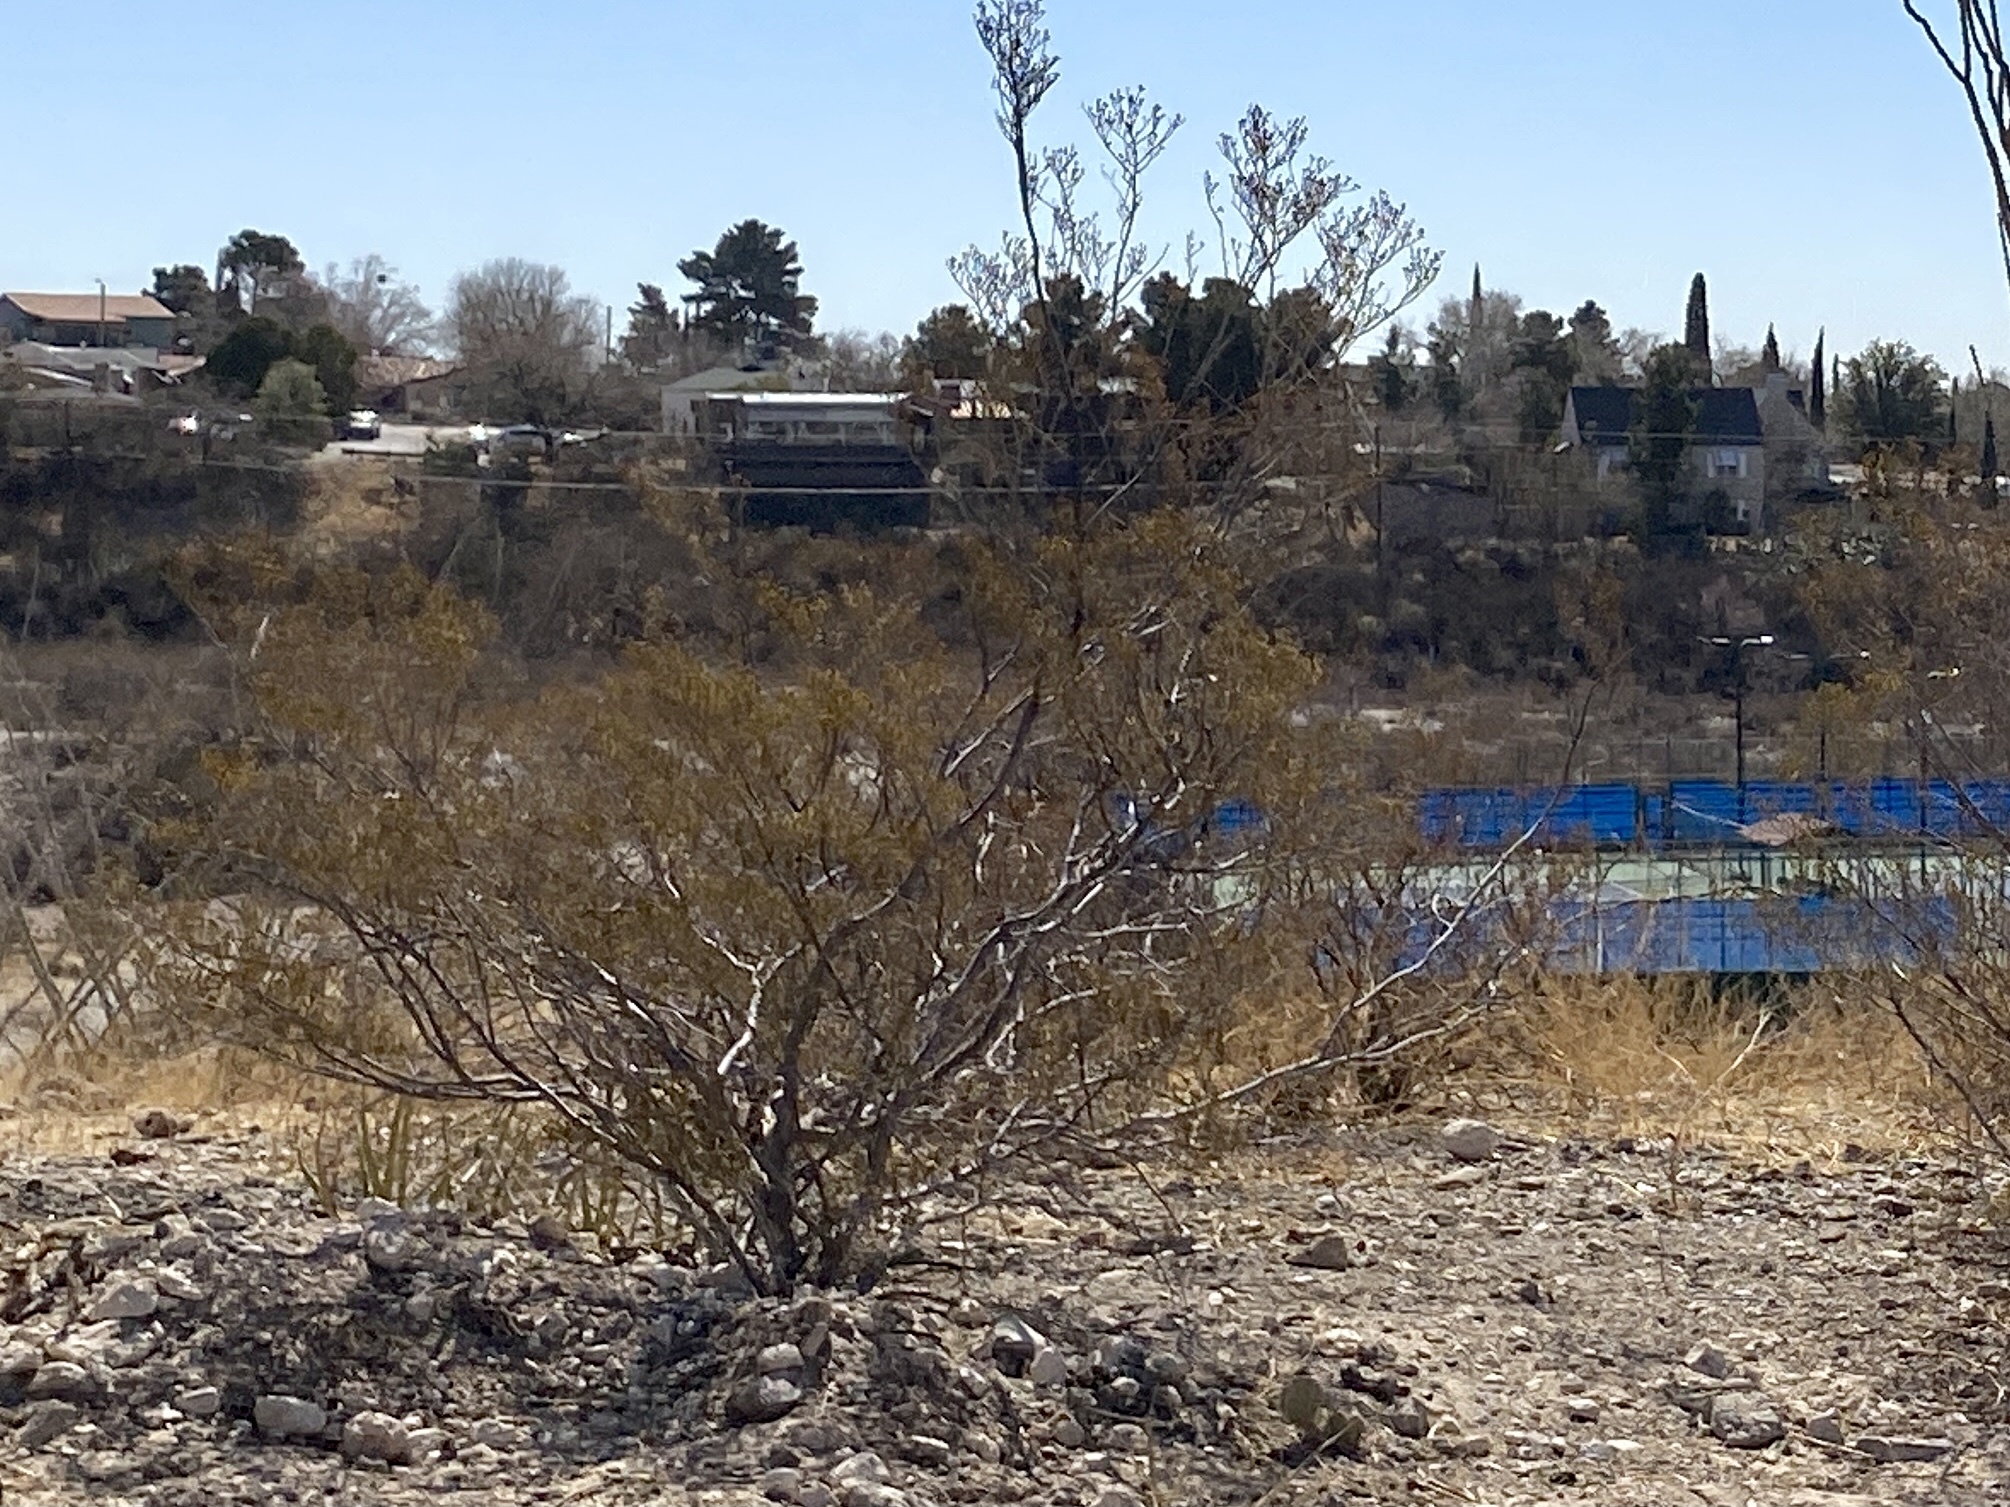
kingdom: Plantae
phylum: Tracheophyta
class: Magnoliopsida
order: Zygophyllales
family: Zygophyllaceae
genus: Larrea
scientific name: Larrea tridentata
